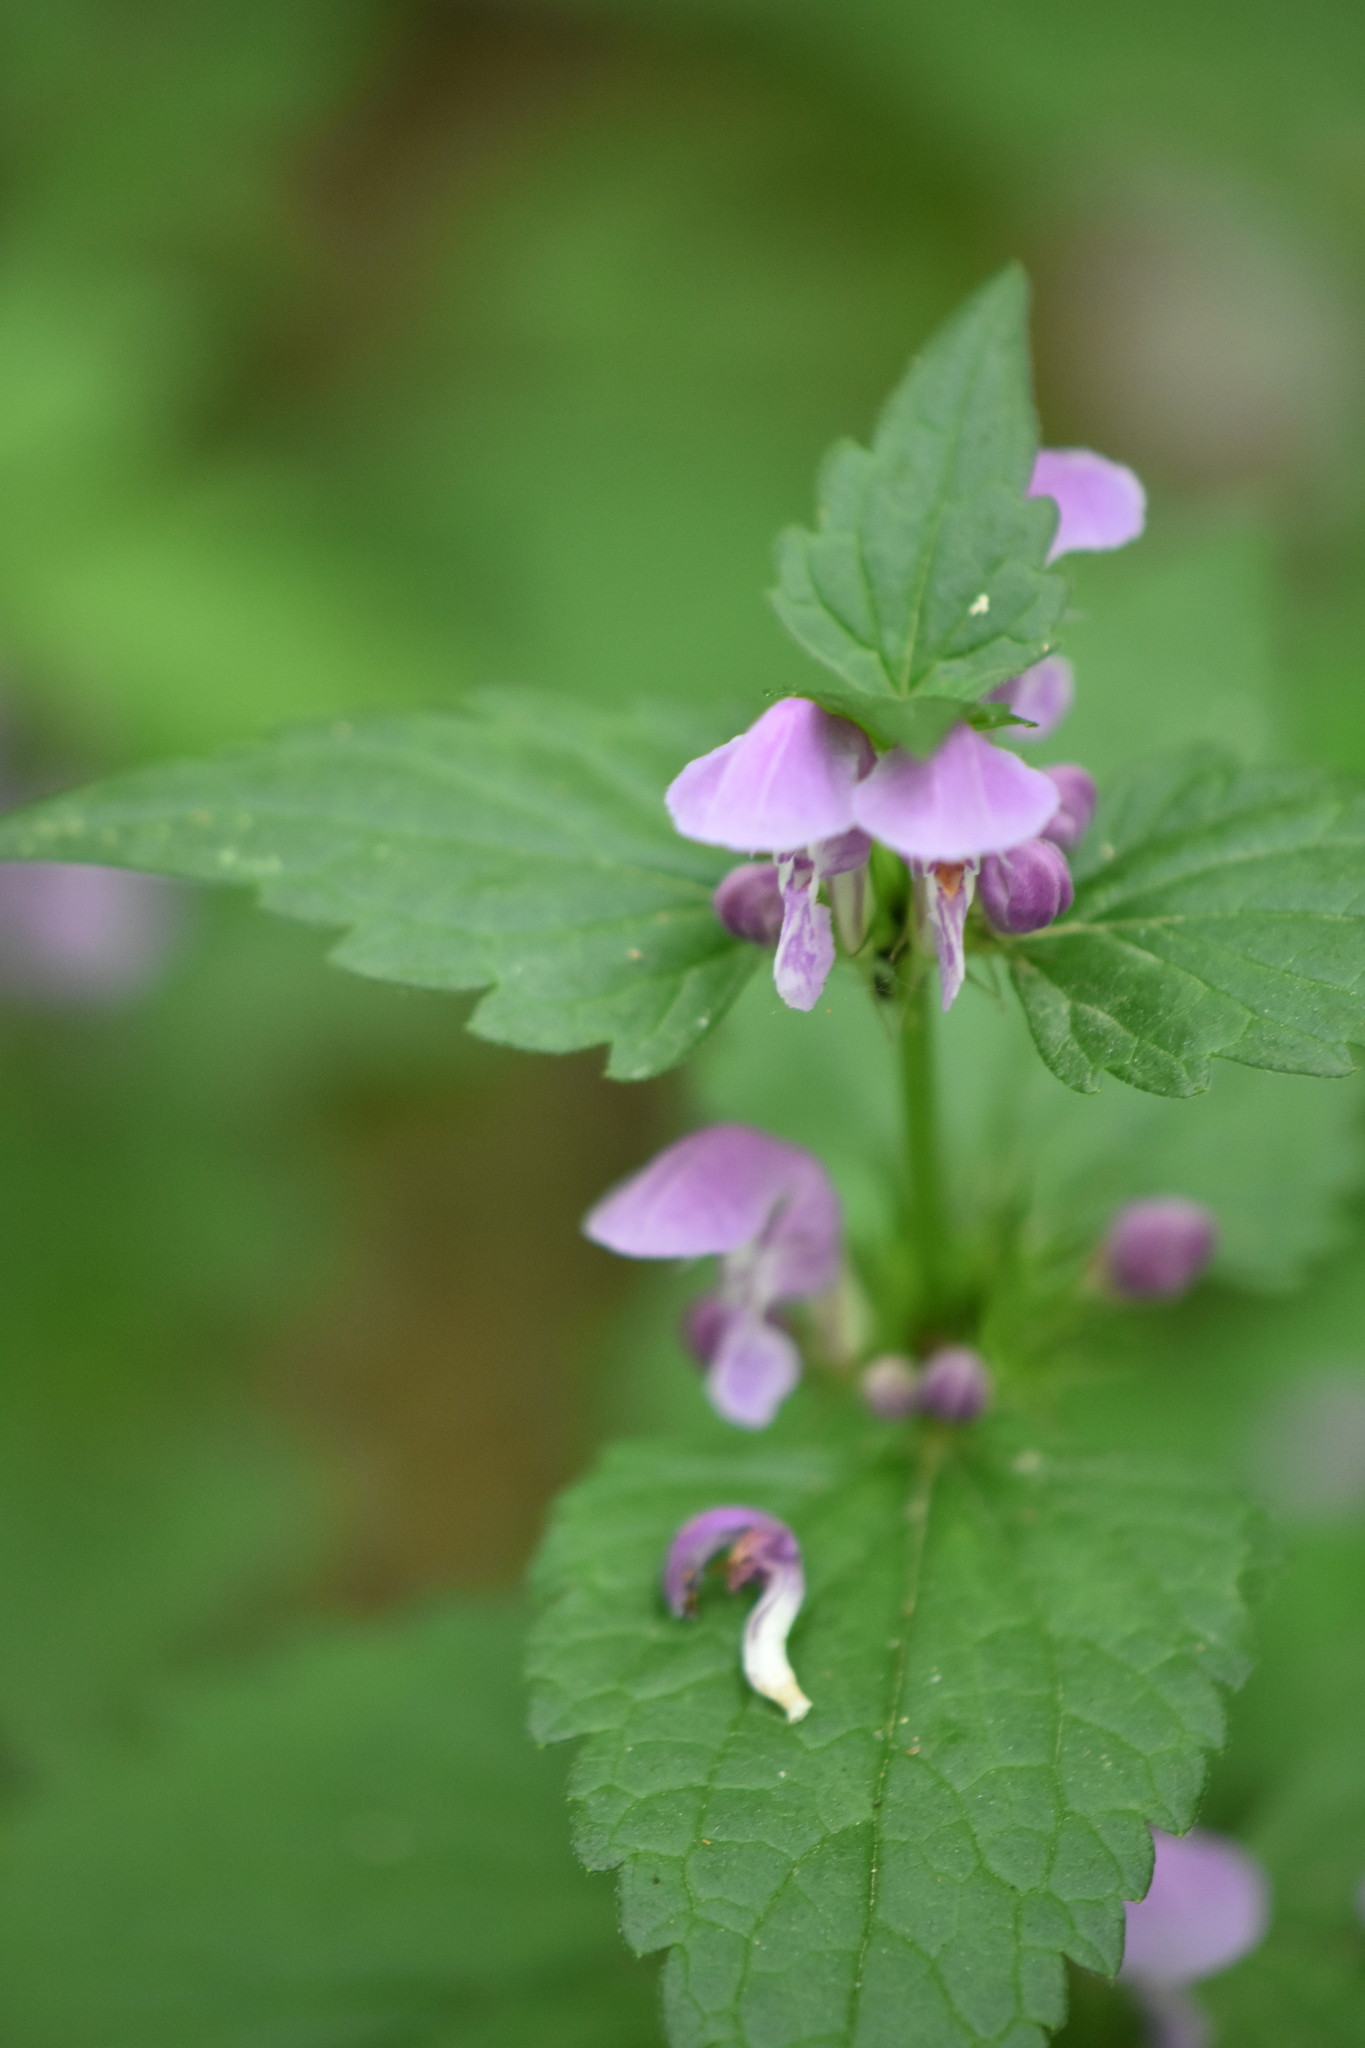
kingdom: Plantae
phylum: Tracheophyta
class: Magnoliopsida
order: Lamiales
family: Lamiaceae
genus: Lamium
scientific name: Lamium maculatum
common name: Spotted dead-nettle
